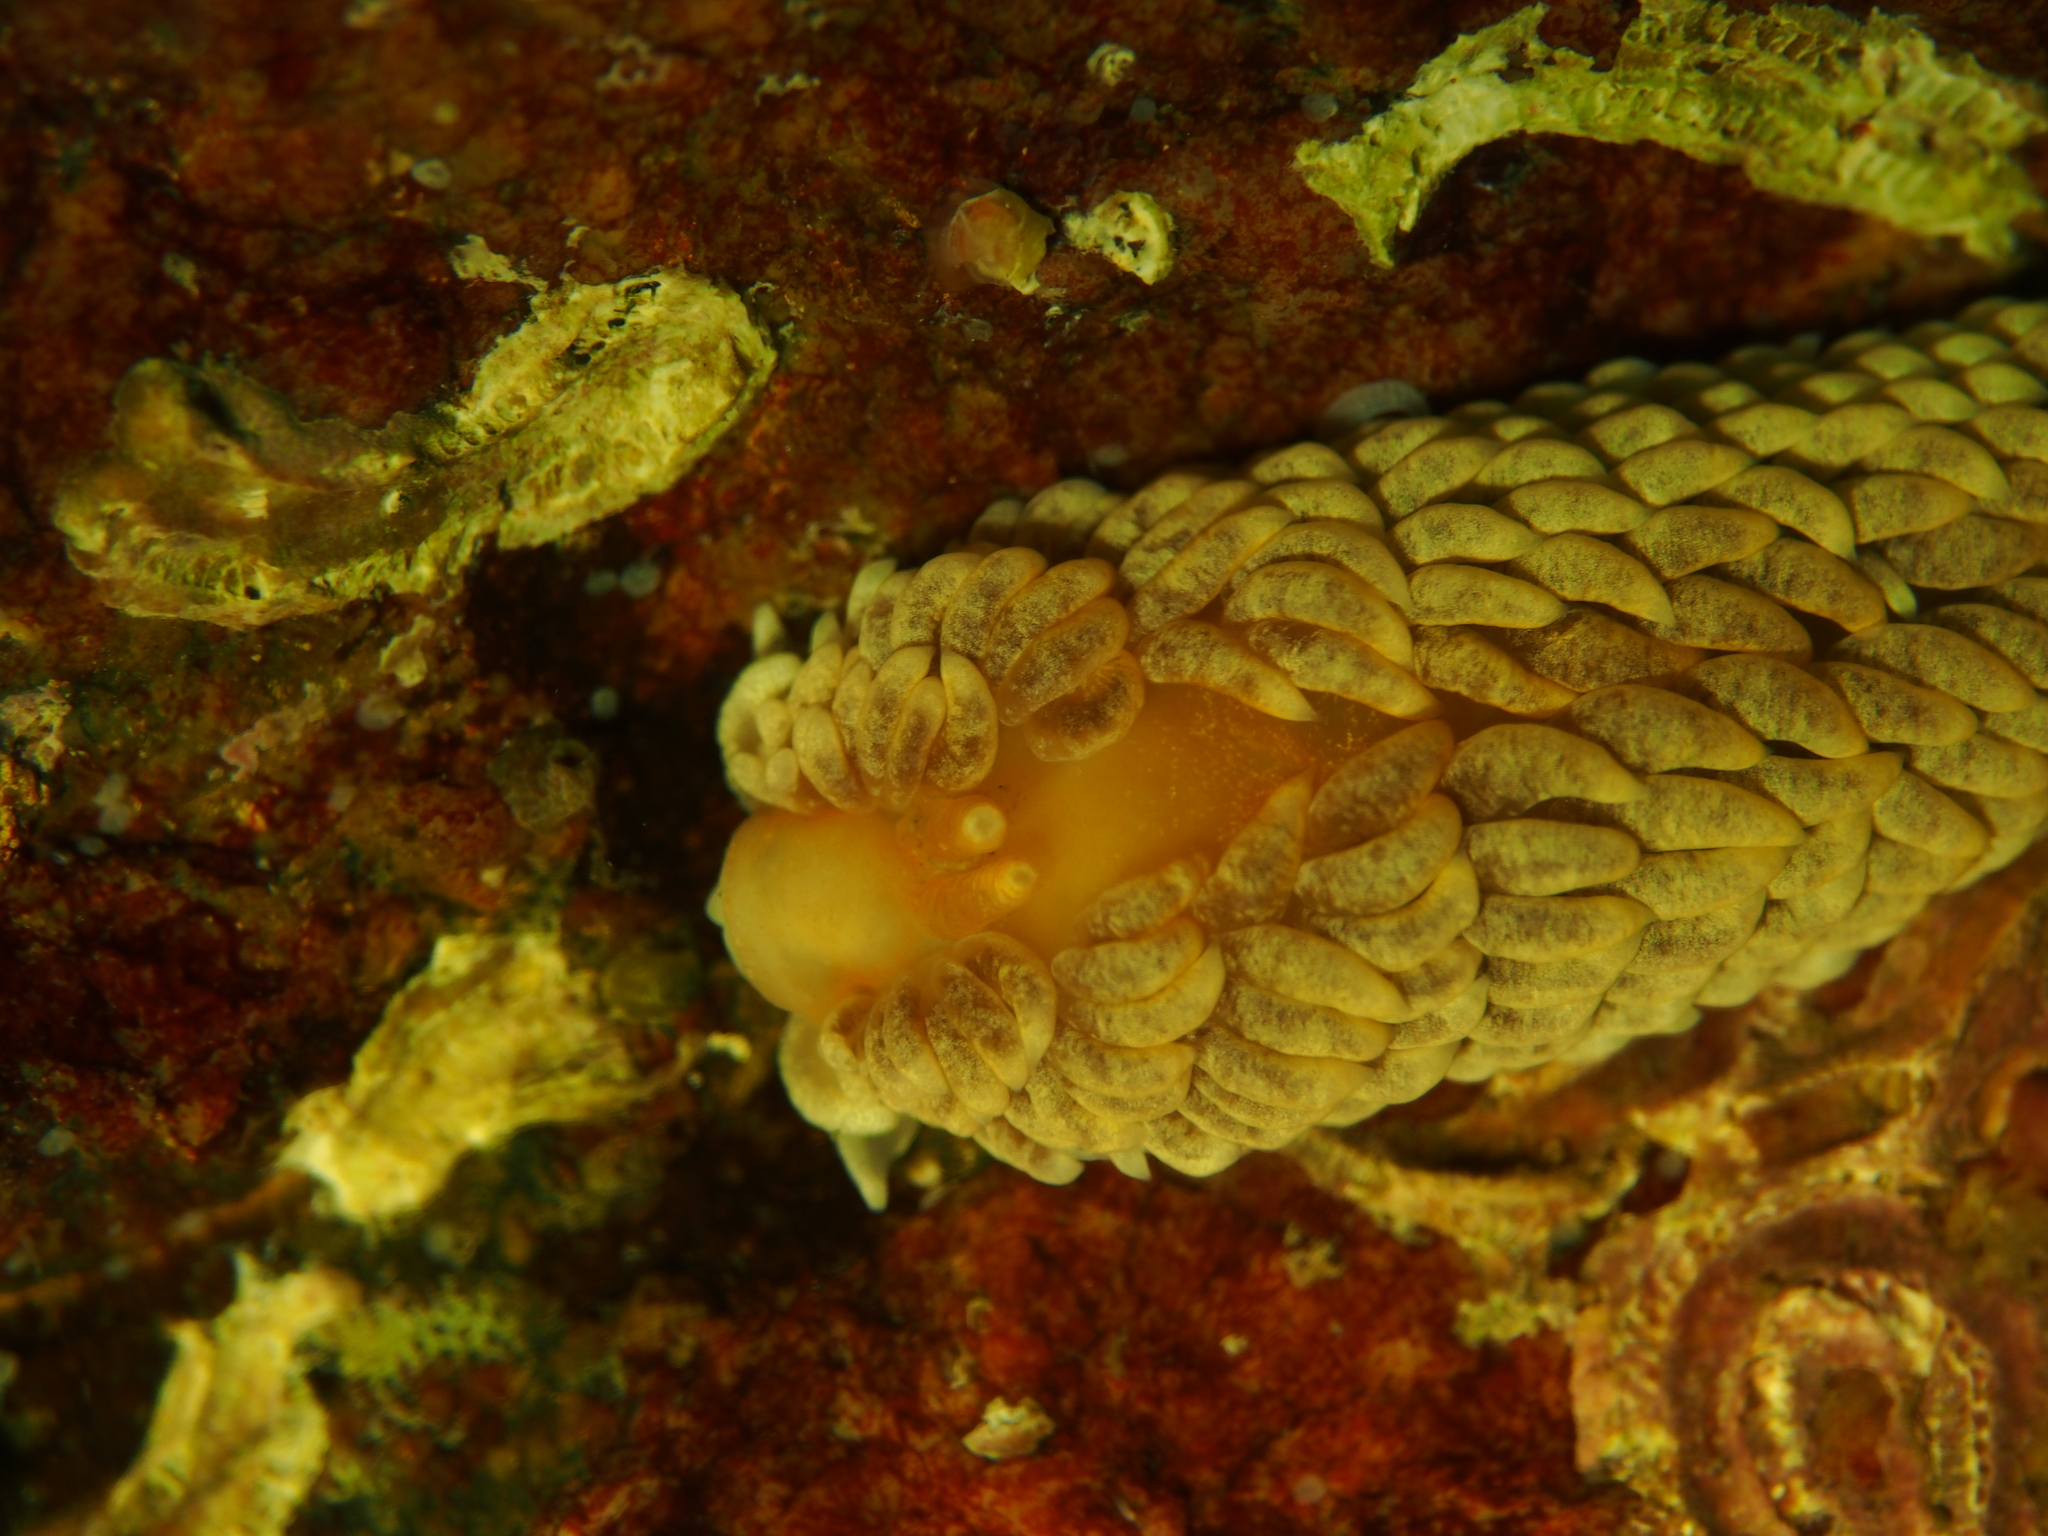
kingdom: Animalia
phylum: Mollusca
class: Gastropoda
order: Nudibranchia
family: Aeolidiidae
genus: Aeolidiella
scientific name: Aeolidiella glauca
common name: Orange-brown aeolid
